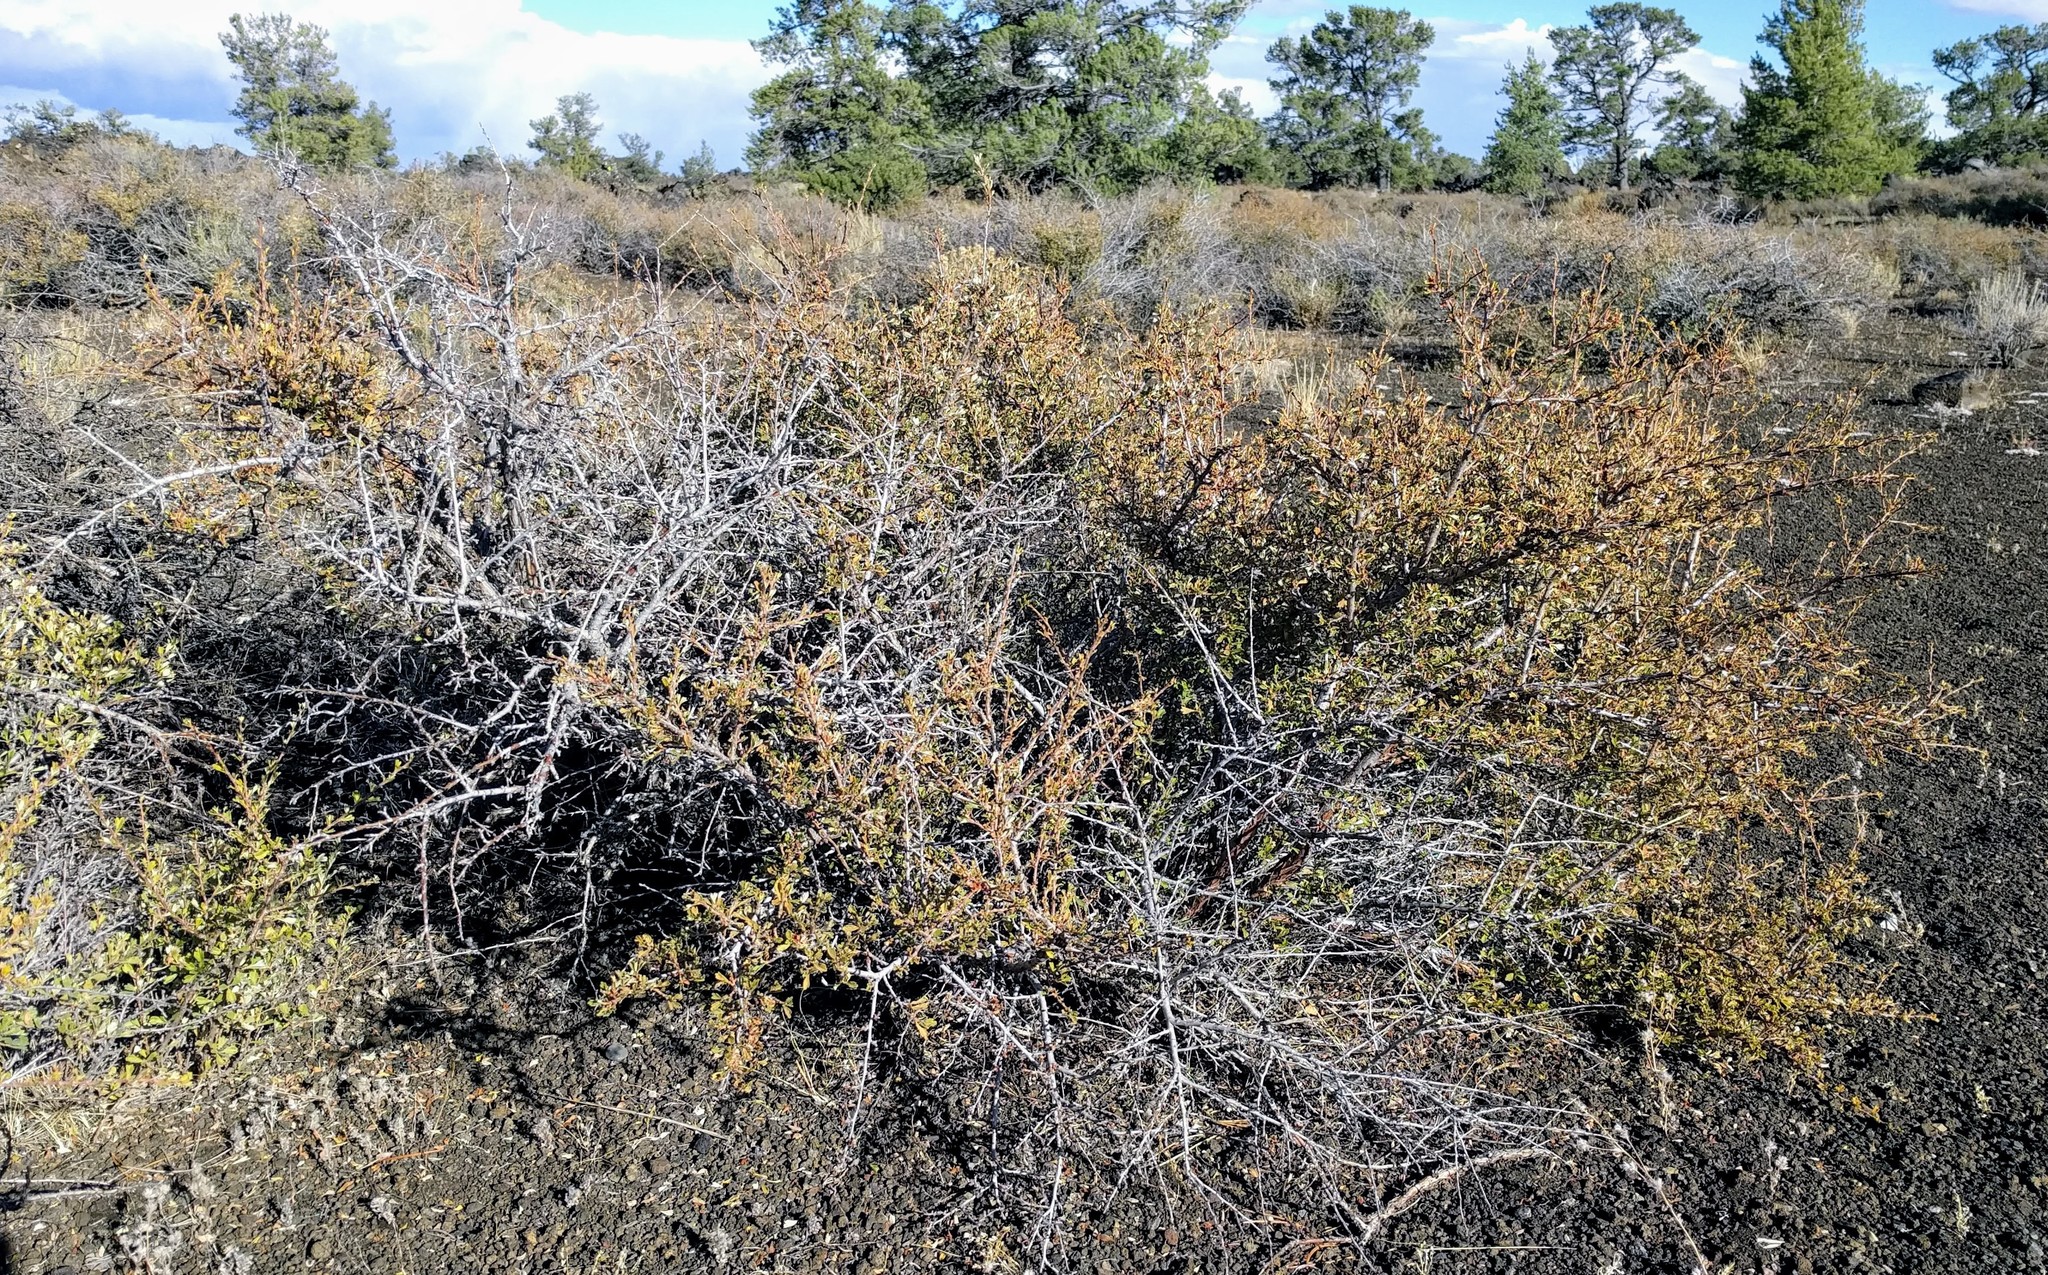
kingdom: Plantae
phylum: Tracheophyta
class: Magnoliopsida
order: Rosales
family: Rosaceae
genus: Purshia
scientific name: Purshia tridentata
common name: Antelope bitterbrush
